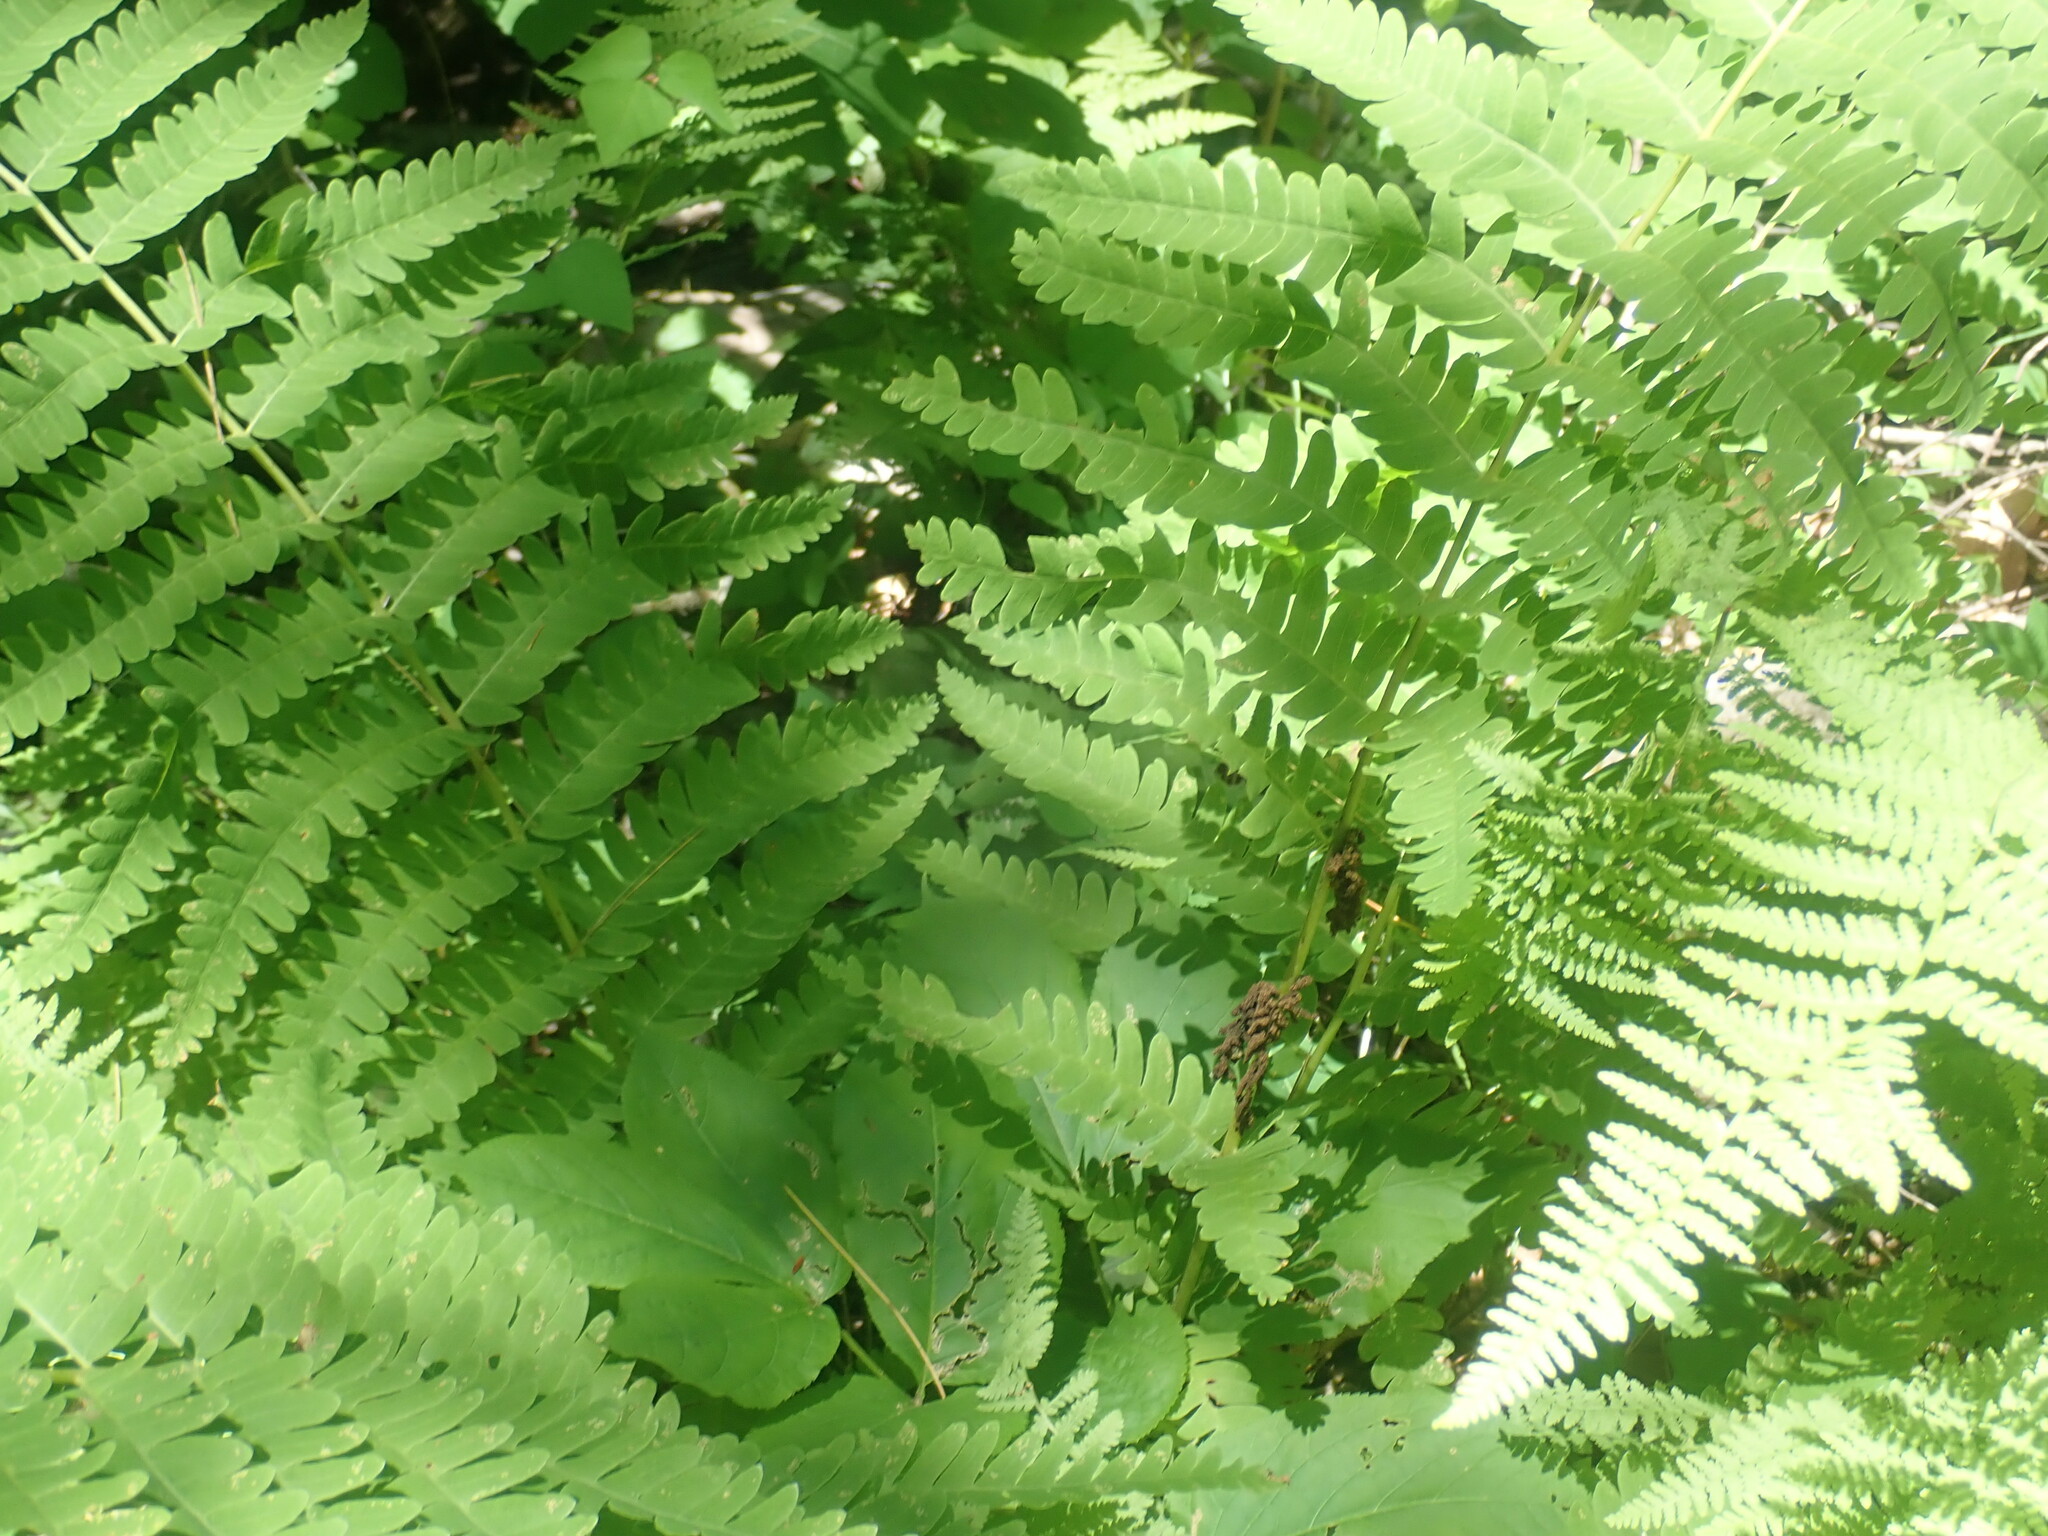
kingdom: Plantae
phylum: Tracheophyta
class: Polypodiopsida
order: Osmundales
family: Osmundaceae
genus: Claytosmunda
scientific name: Claytosmunda claytoniana
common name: Clayton's fern
